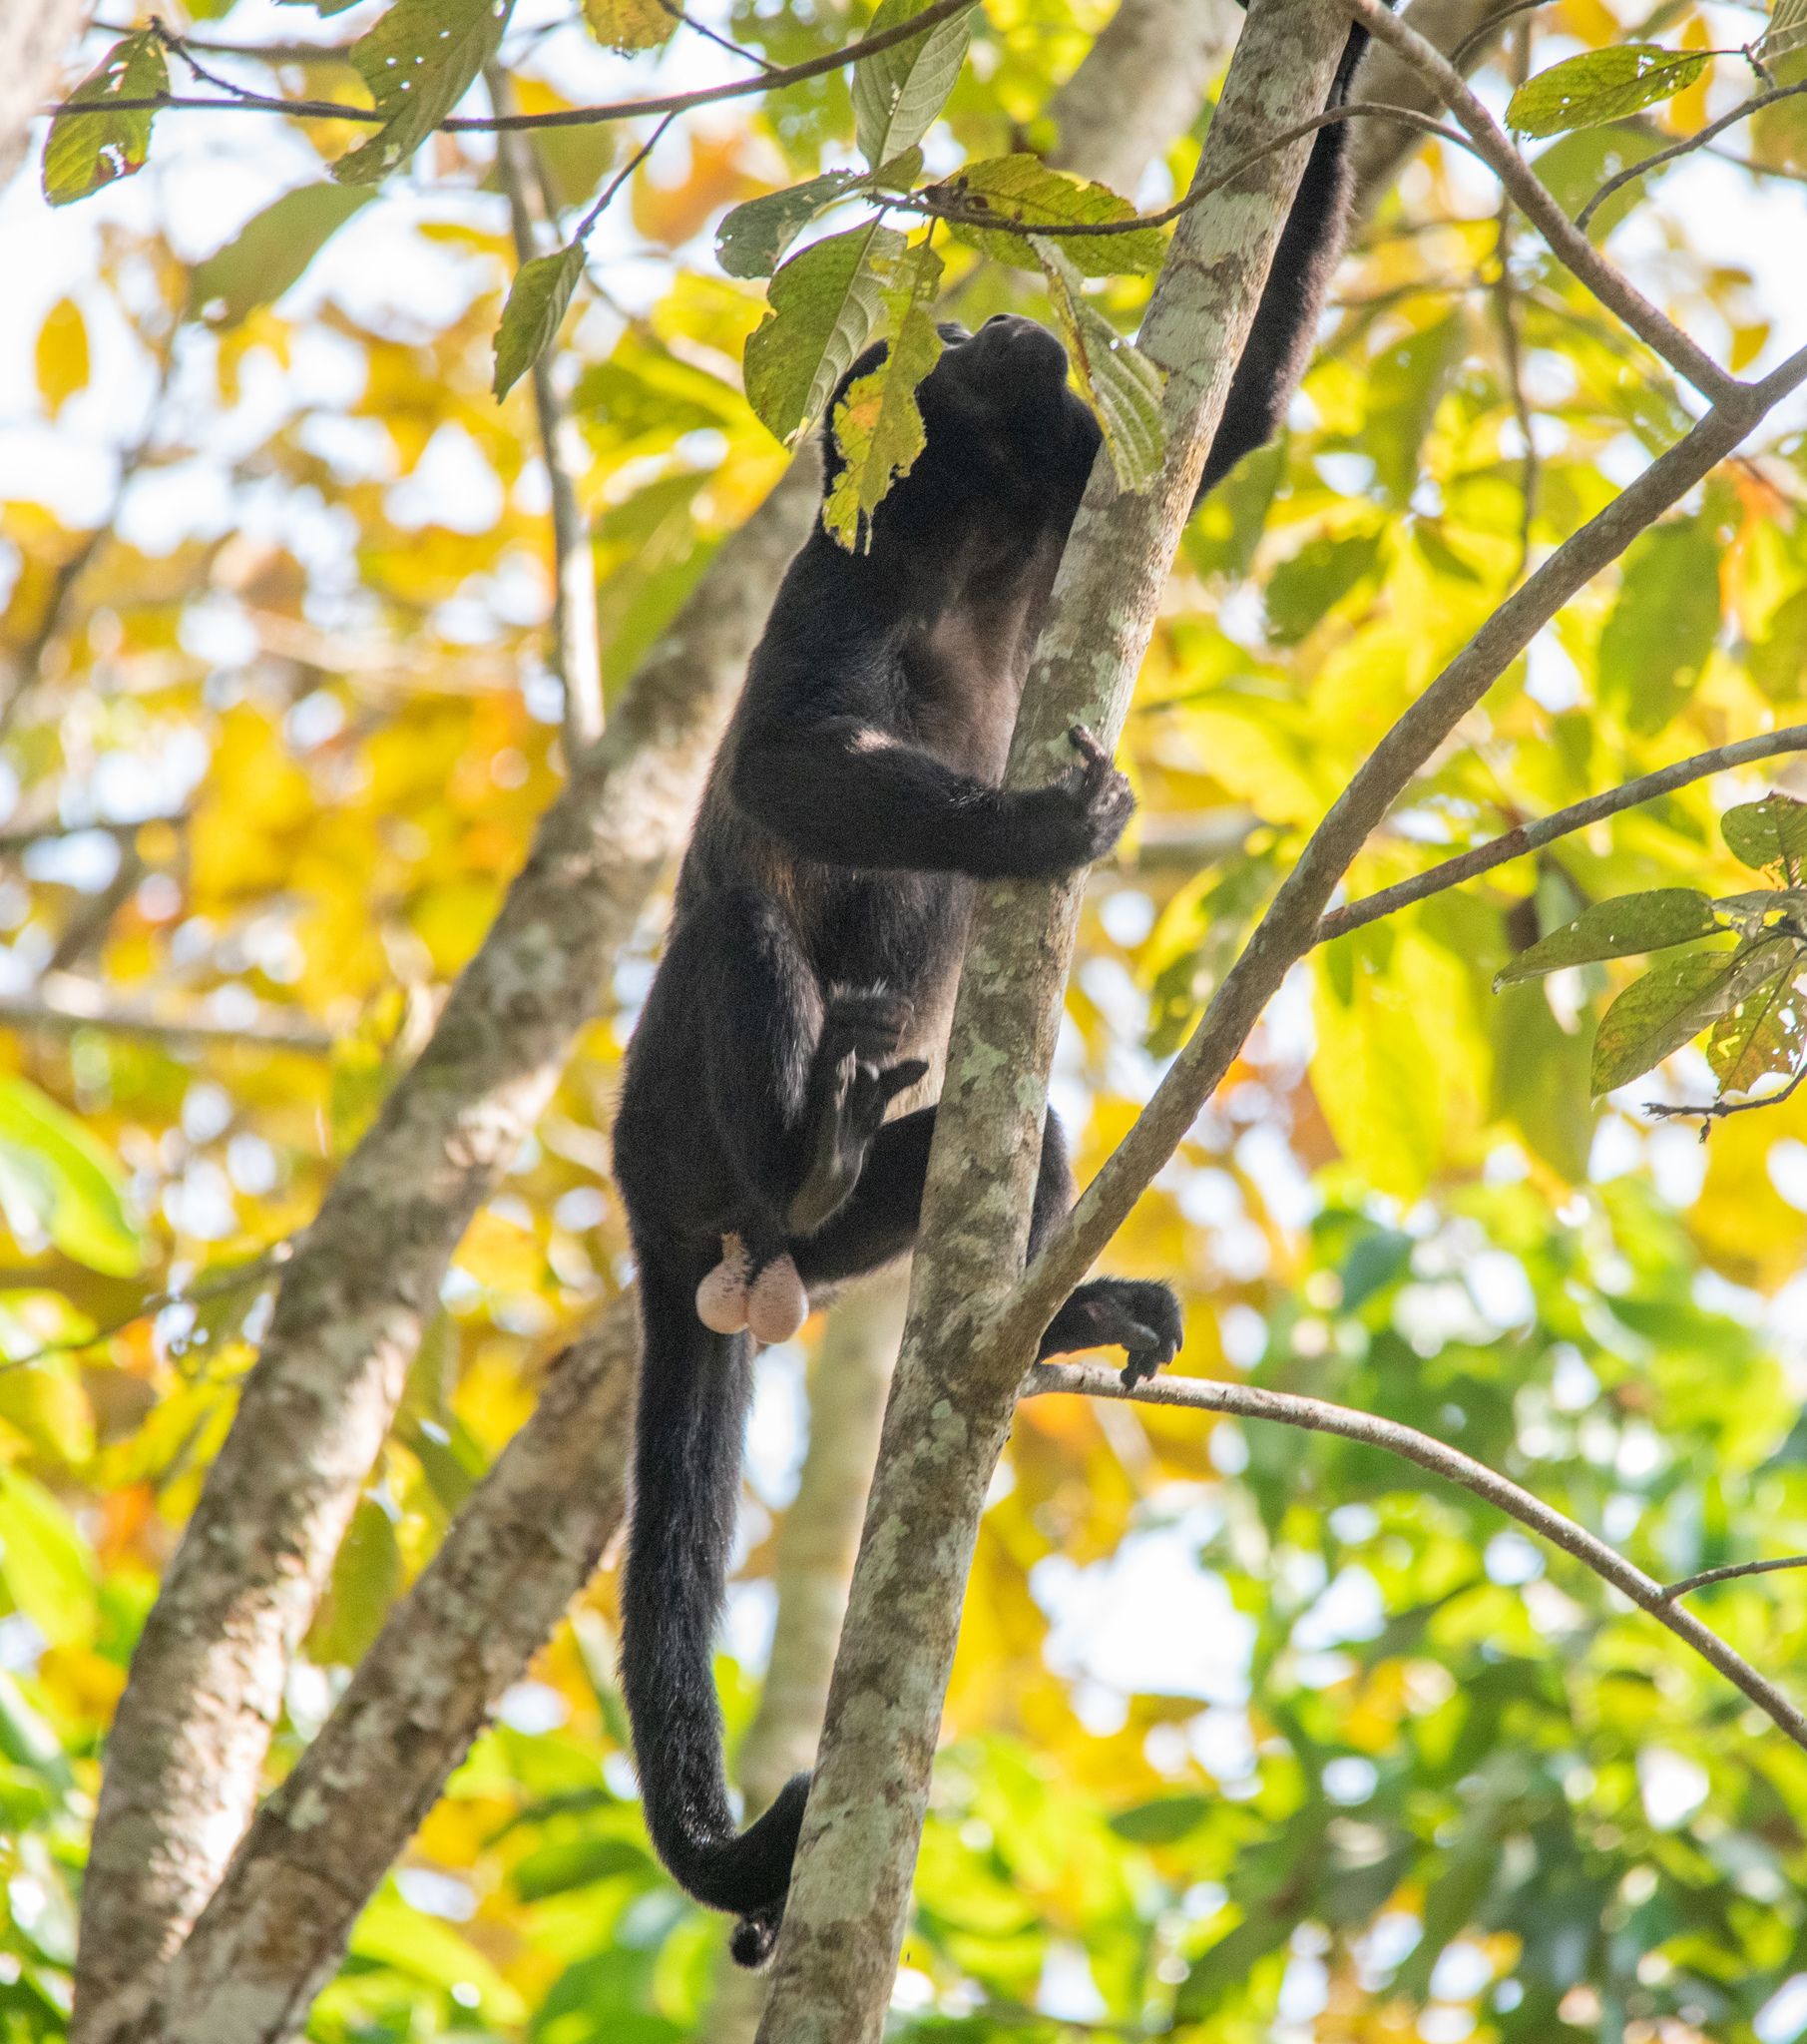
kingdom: Animalia
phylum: Chordata
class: Mammalia
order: Primates
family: Atelidae
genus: Alouatta
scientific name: Alouatta palliata
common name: Mantled howler
